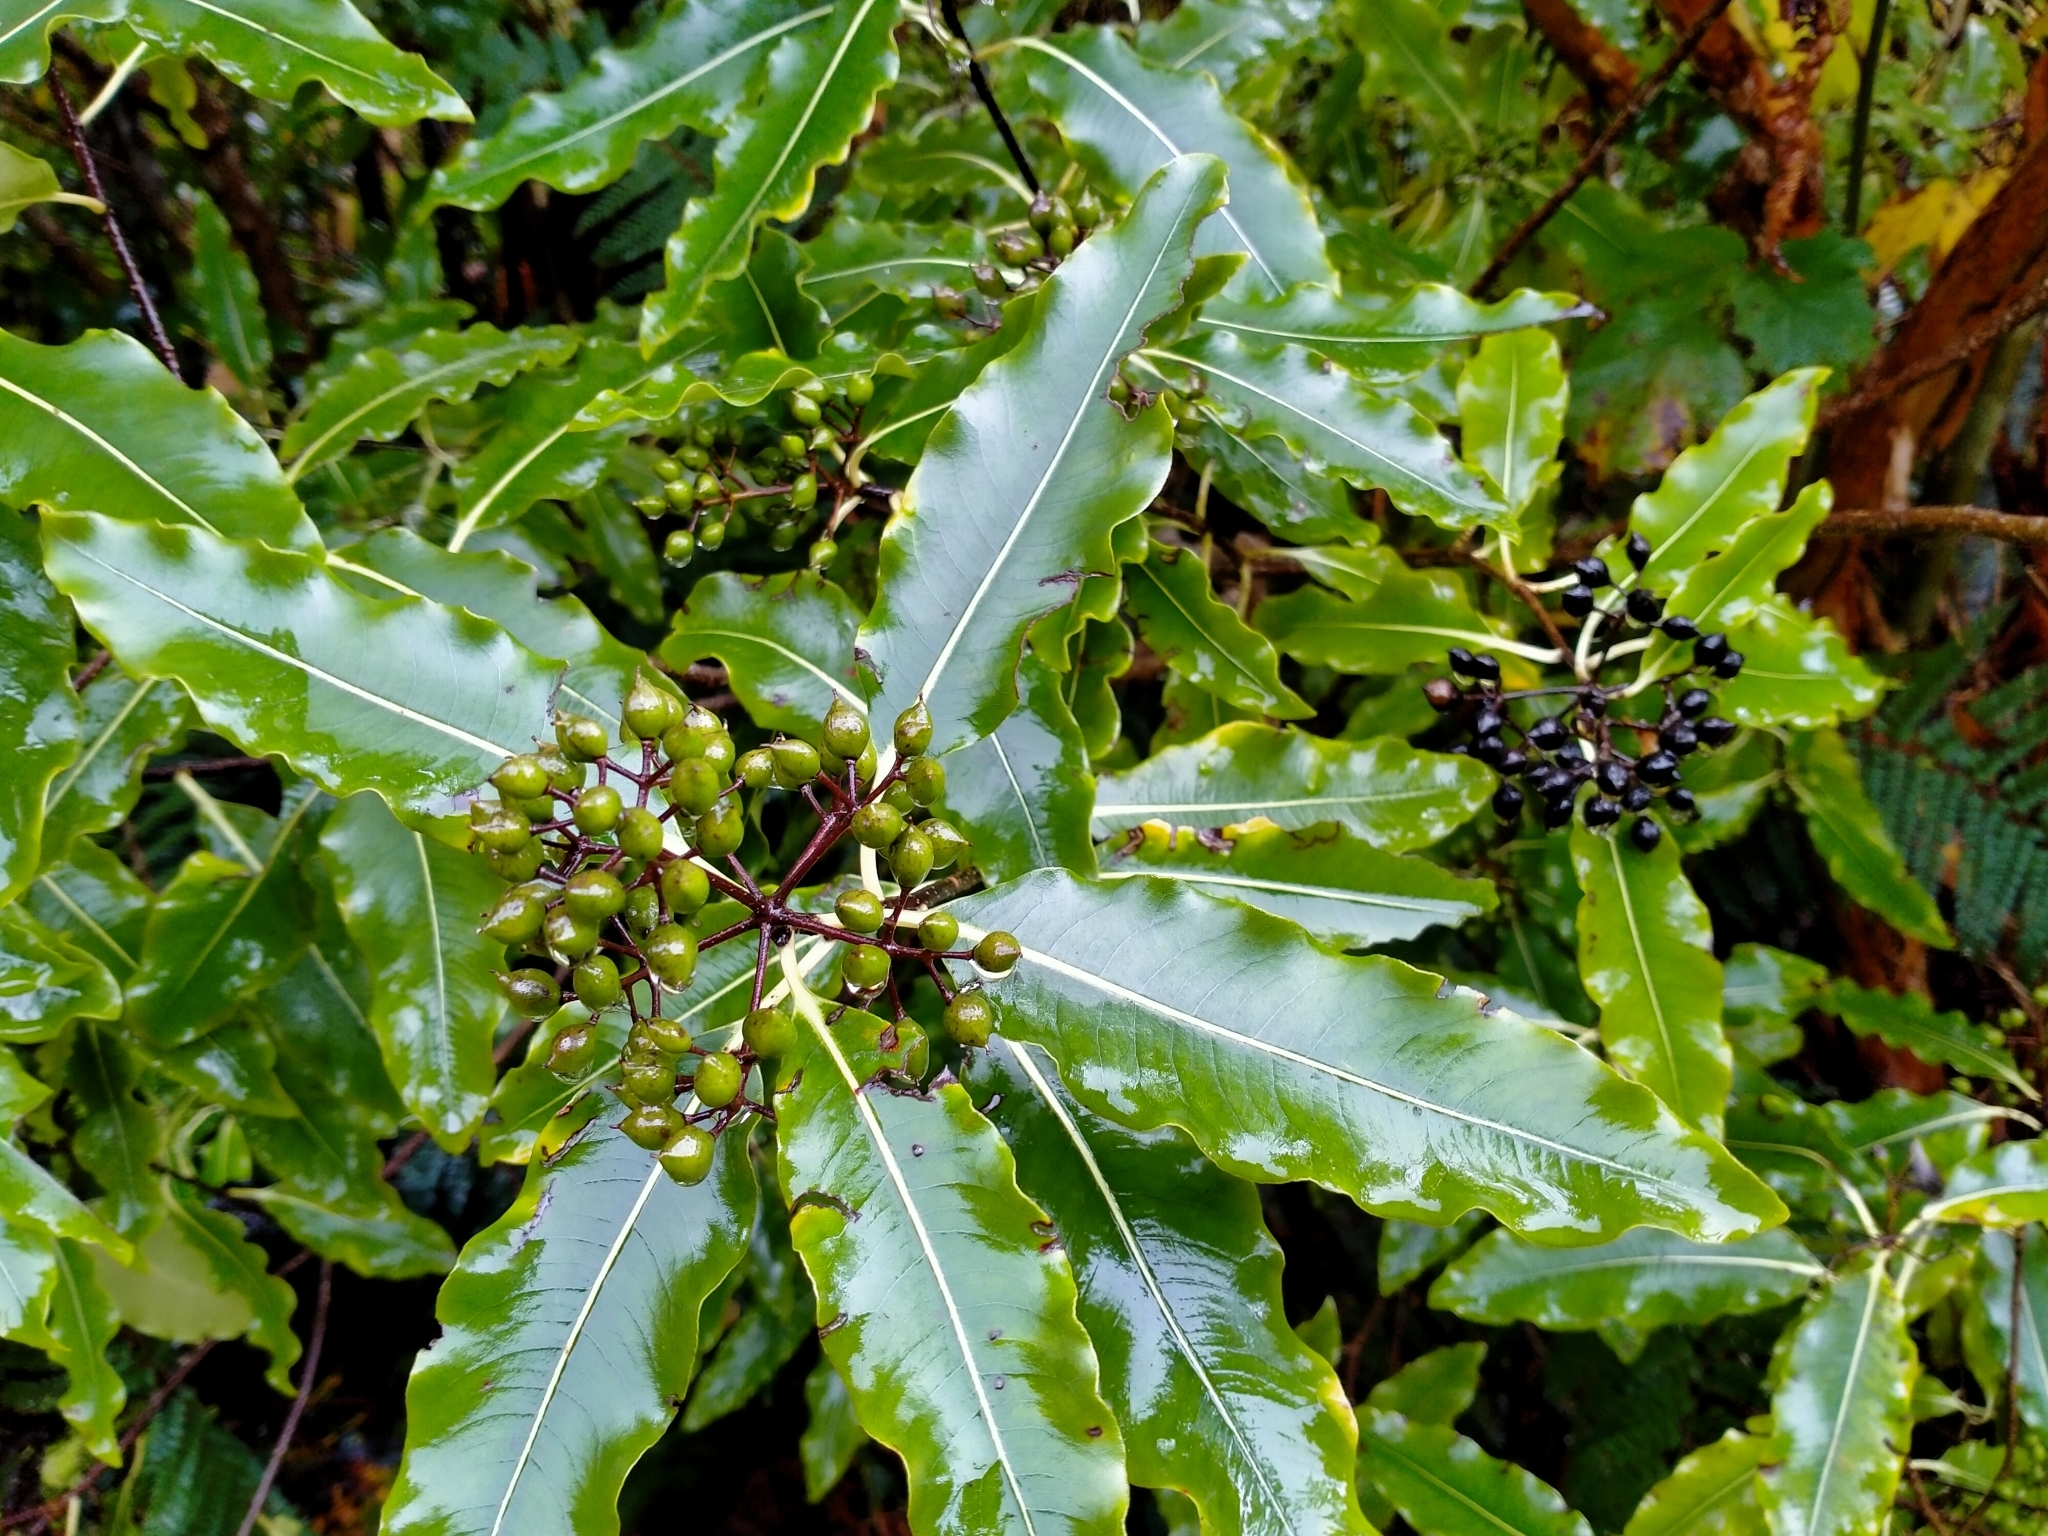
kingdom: Plantae
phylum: Tracheophyta
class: Magnoliopsida
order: Apiales
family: Pittosporaceae
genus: Pittosporum
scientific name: Pittosporum eugenioides
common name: Lemonwood
